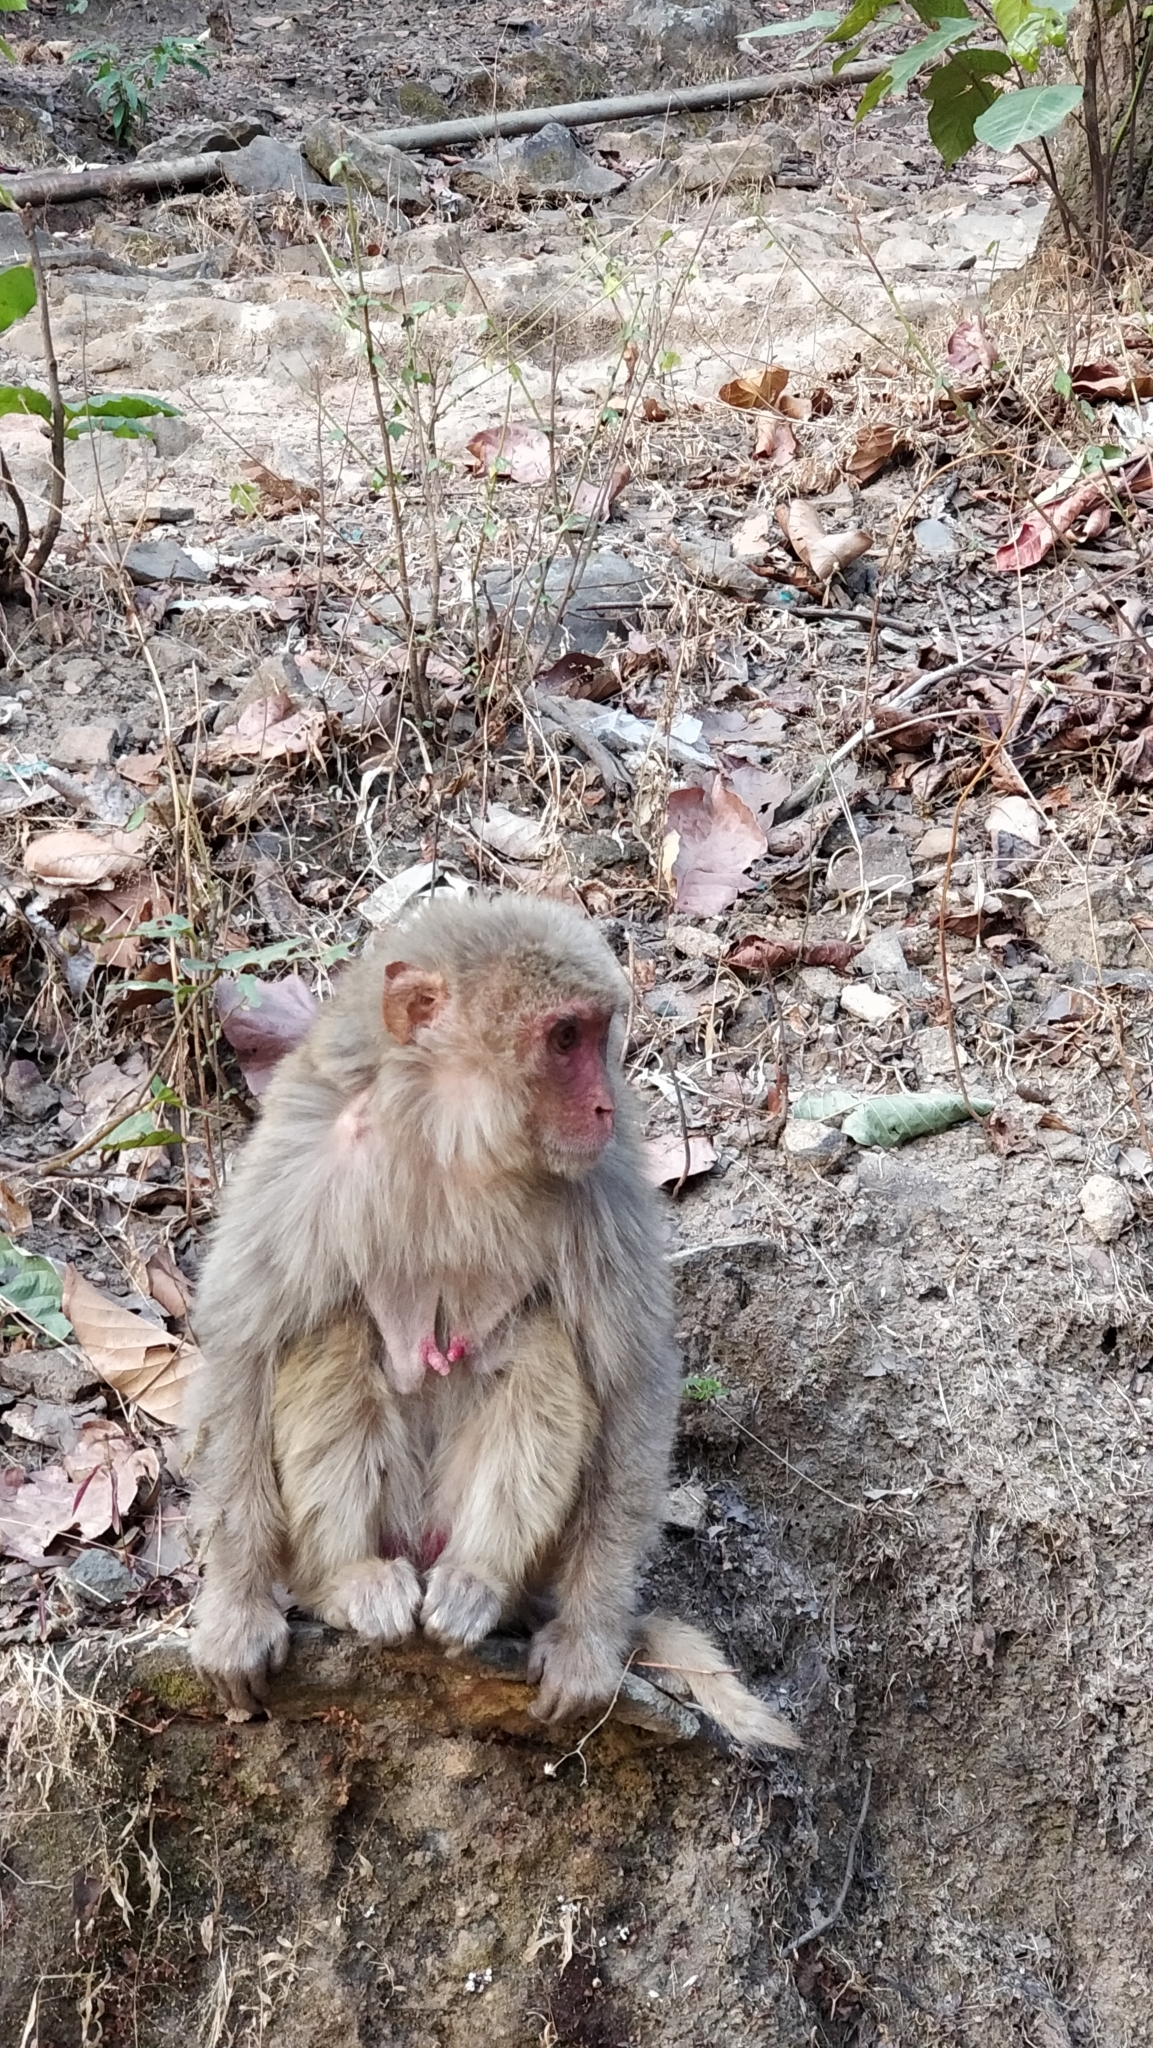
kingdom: Animalia
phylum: Chordata
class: Mammalia
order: Primates
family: Cercopithecidae
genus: Macaca
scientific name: Macaca mulatta
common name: Rhesus monkey
